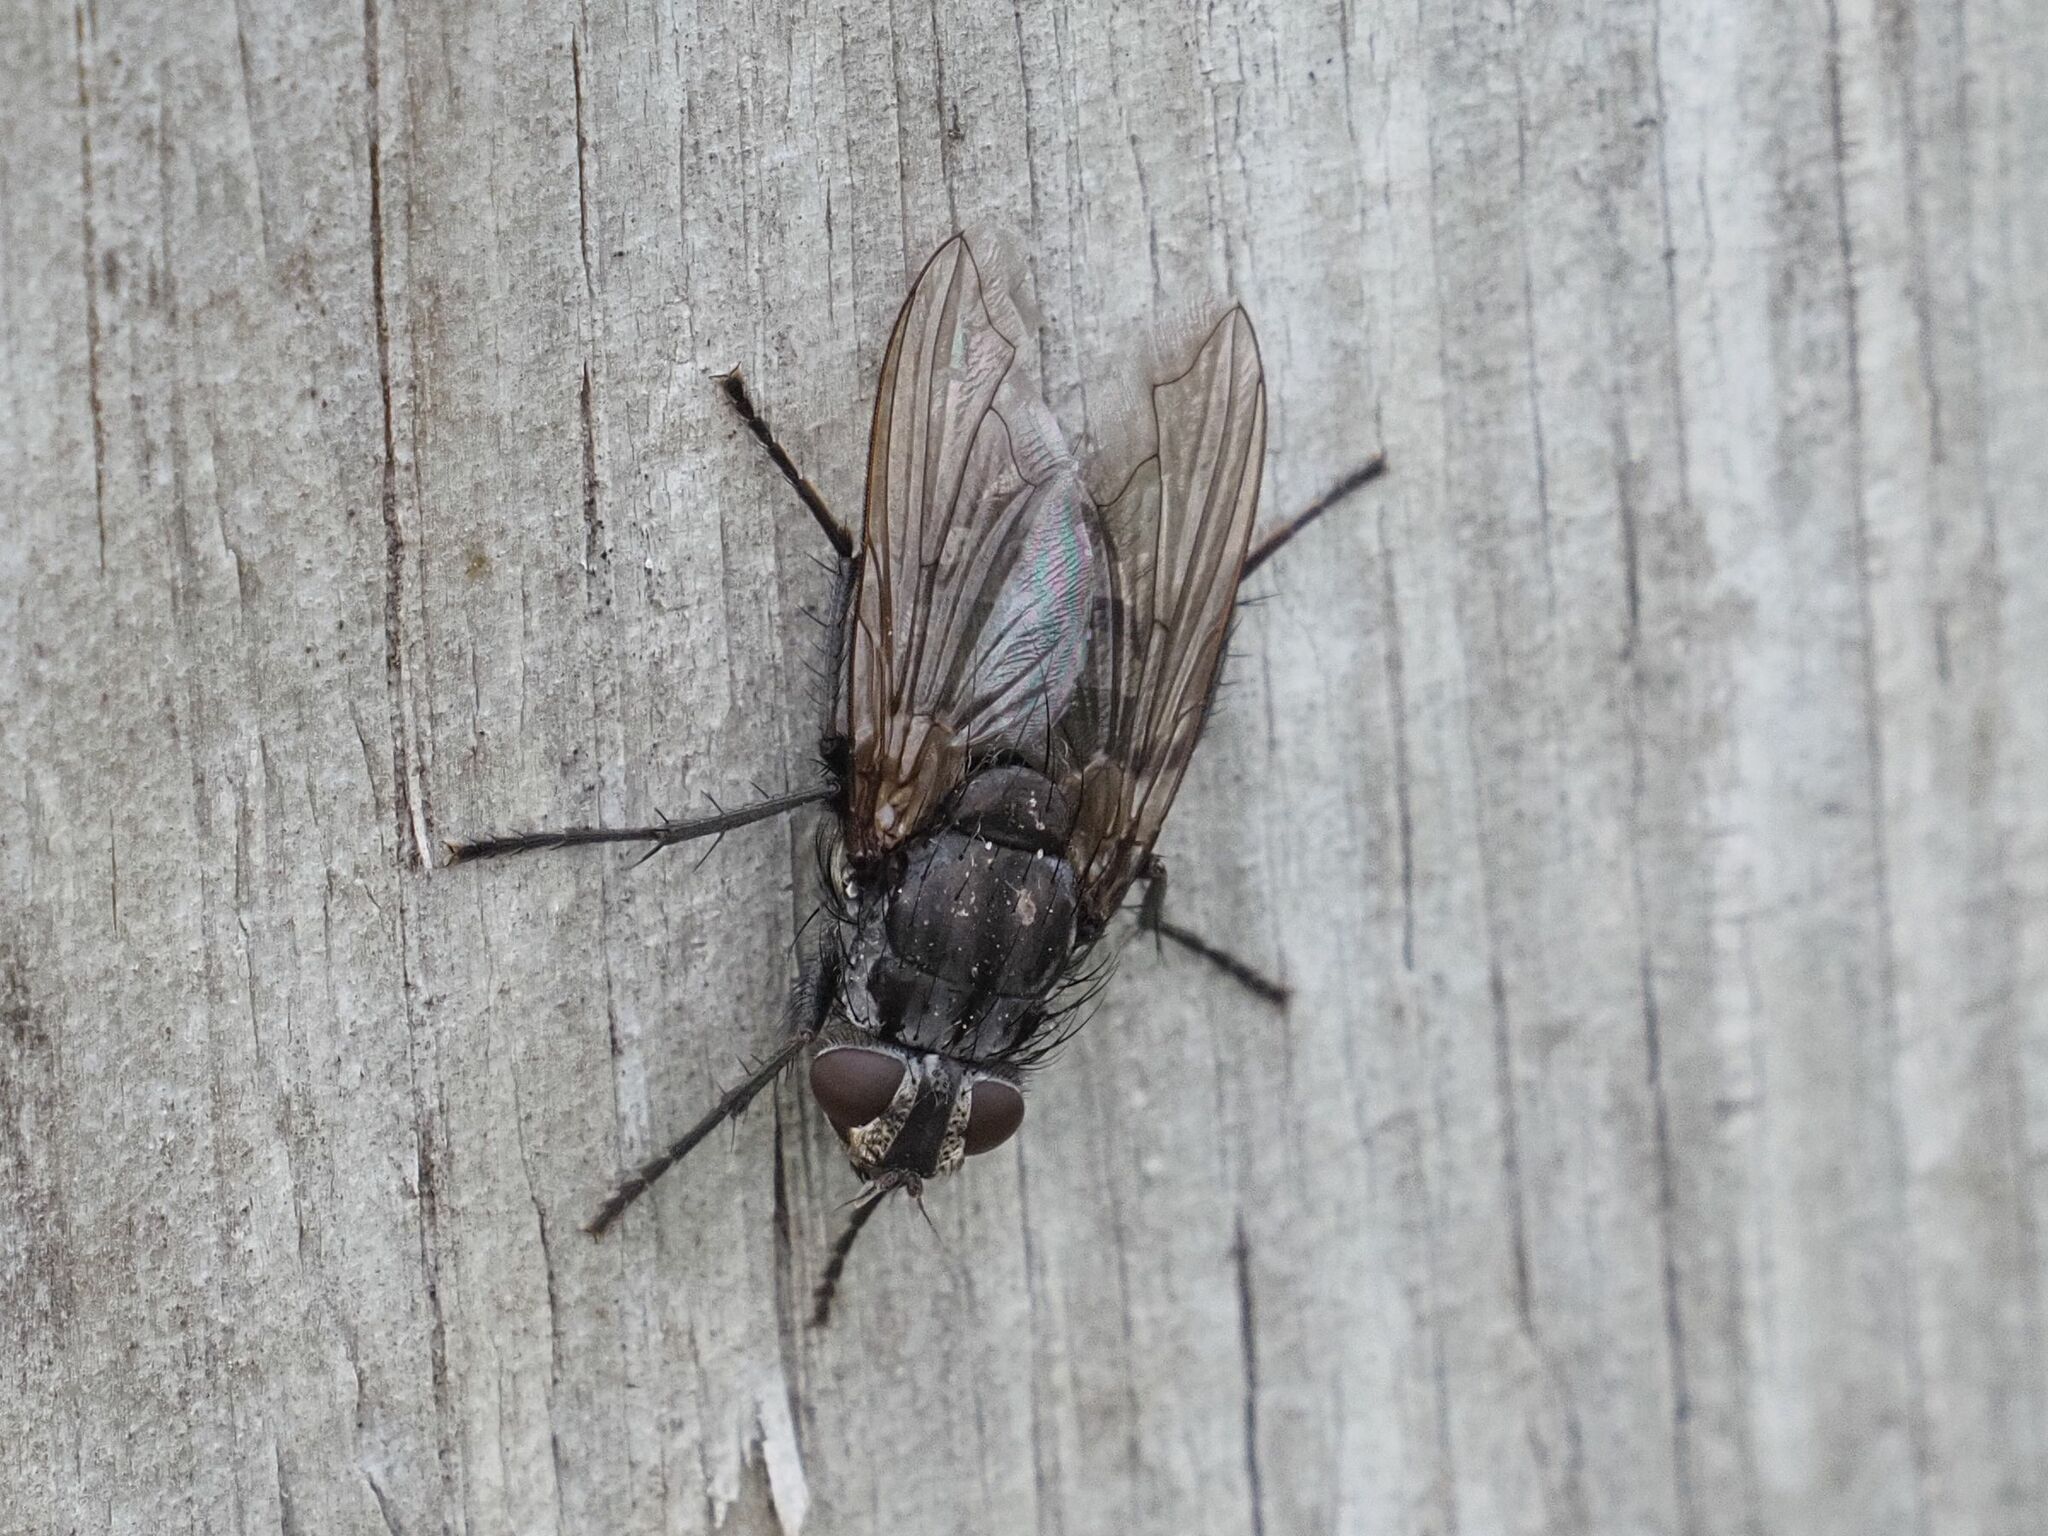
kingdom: Animalia
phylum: Arthropoda
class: Insecta
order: Diptera
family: Polleniidae
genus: Pollenia
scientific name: Pollenia vagabunda
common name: Vagabund cluster fly
